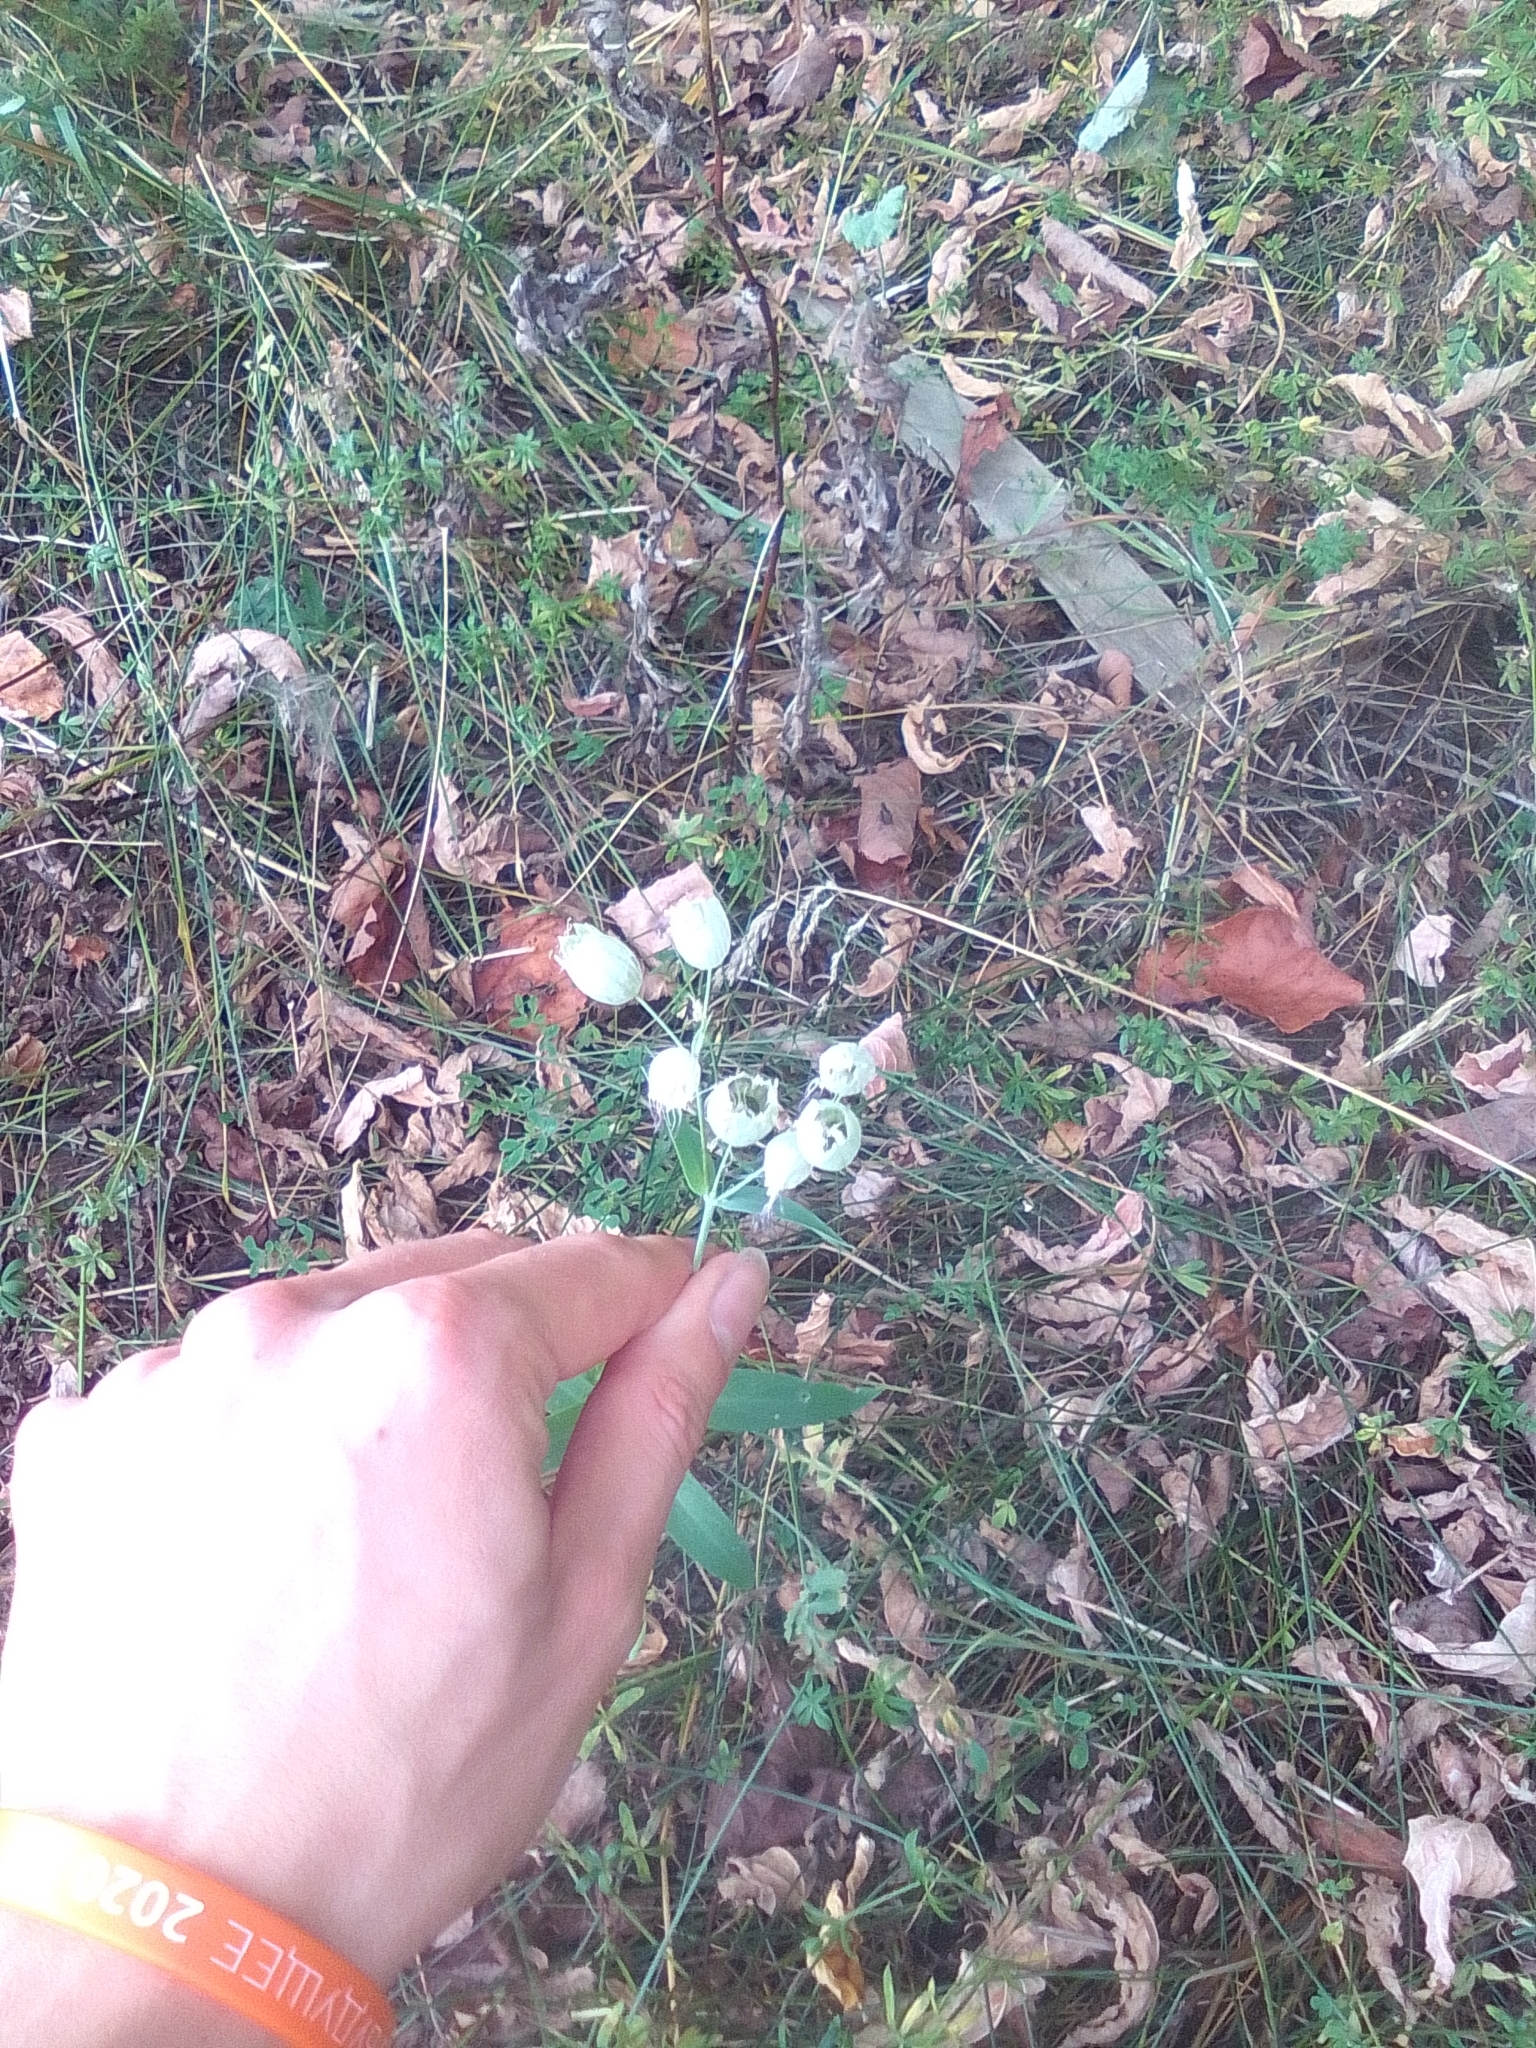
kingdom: Plantae
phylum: Tracheophyta
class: Magnoliopsida
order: Caryophyllales
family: Caryophyllaceae
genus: Silene
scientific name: Silene vulgaris
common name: Bladder campion
